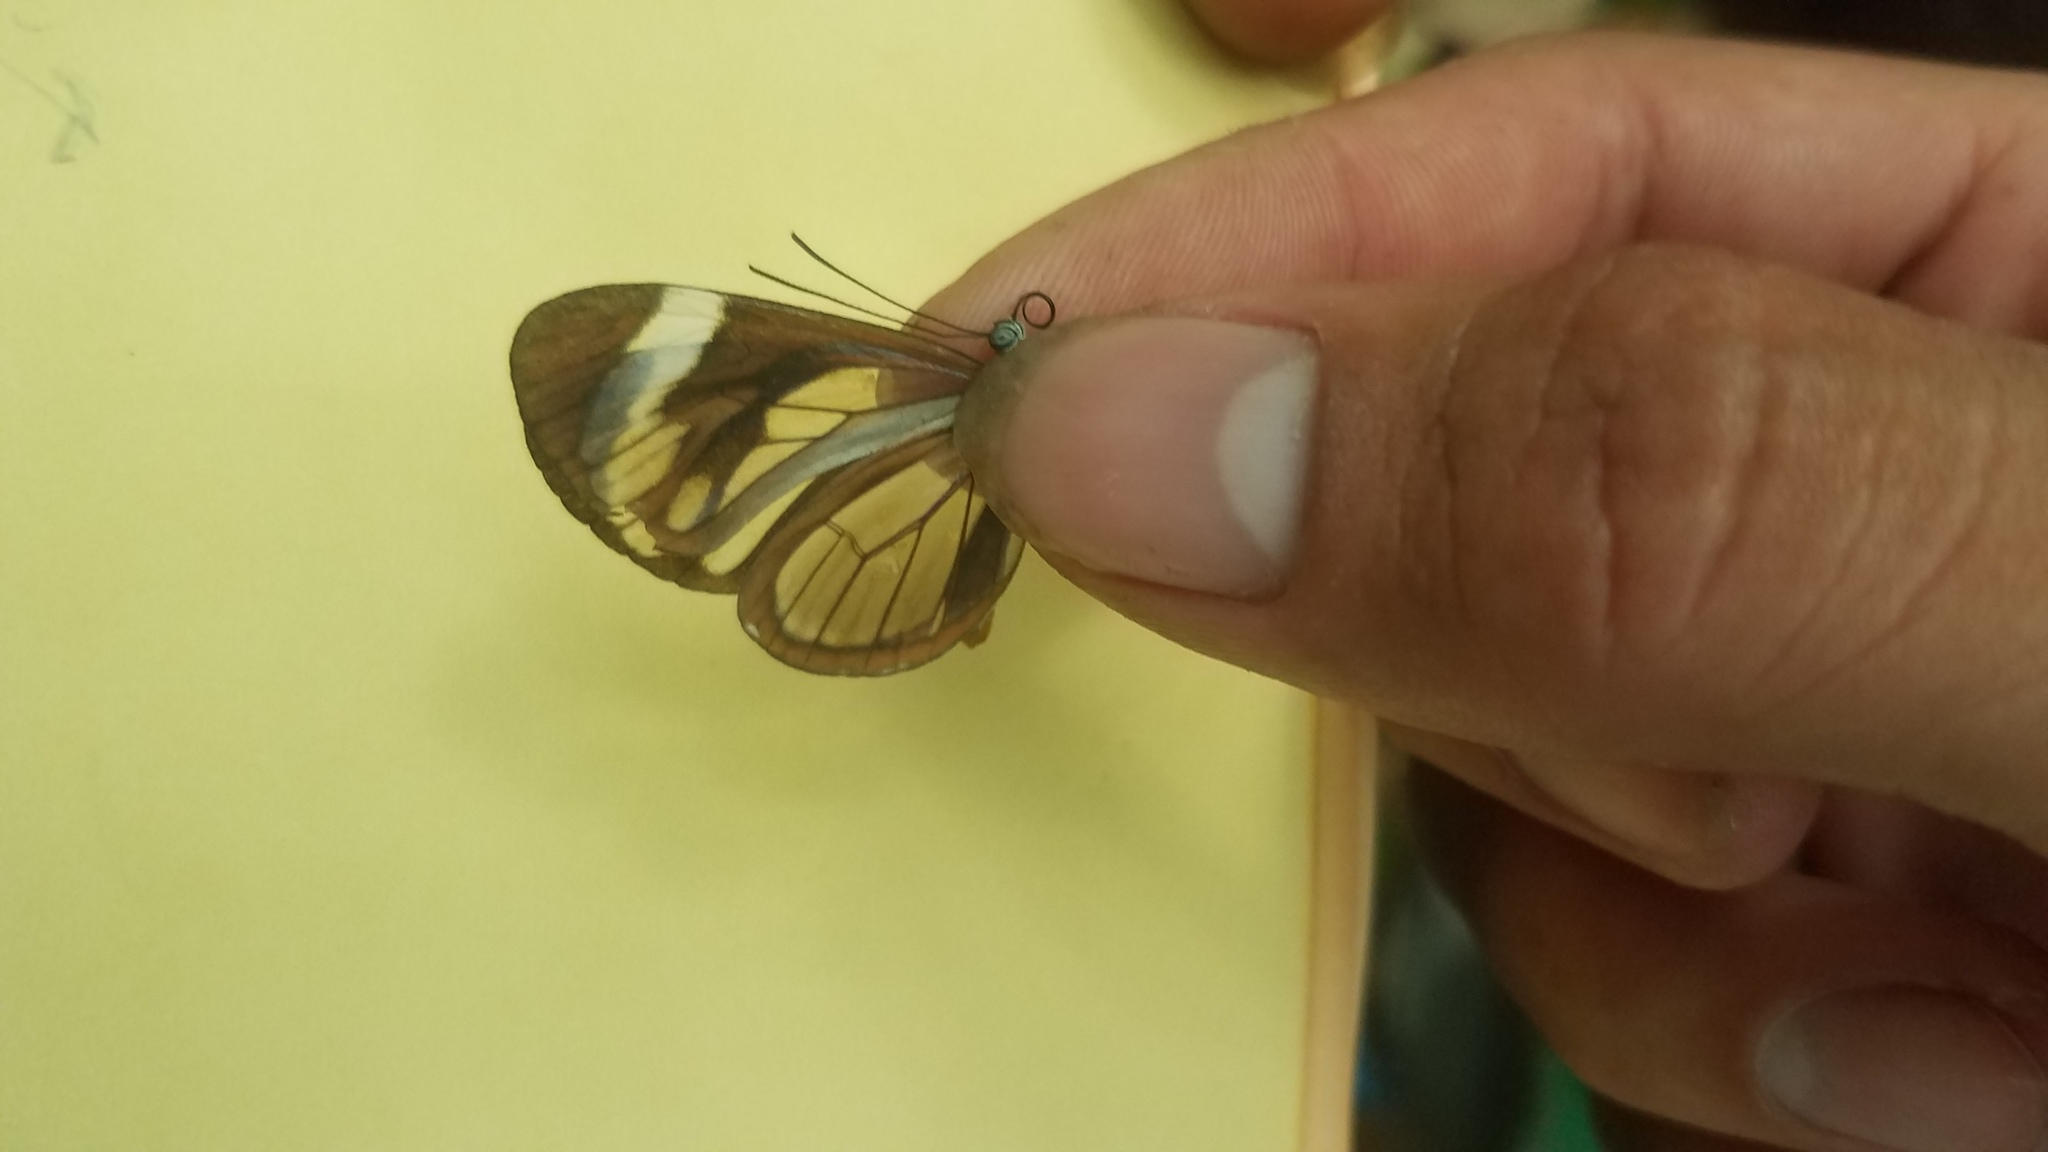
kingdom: Animalia
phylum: Arthropoda
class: Insecta
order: Lepidoptera
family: Nymphalidae
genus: Ithomia
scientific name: Ithomia patilla
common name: Patilla clearwing
